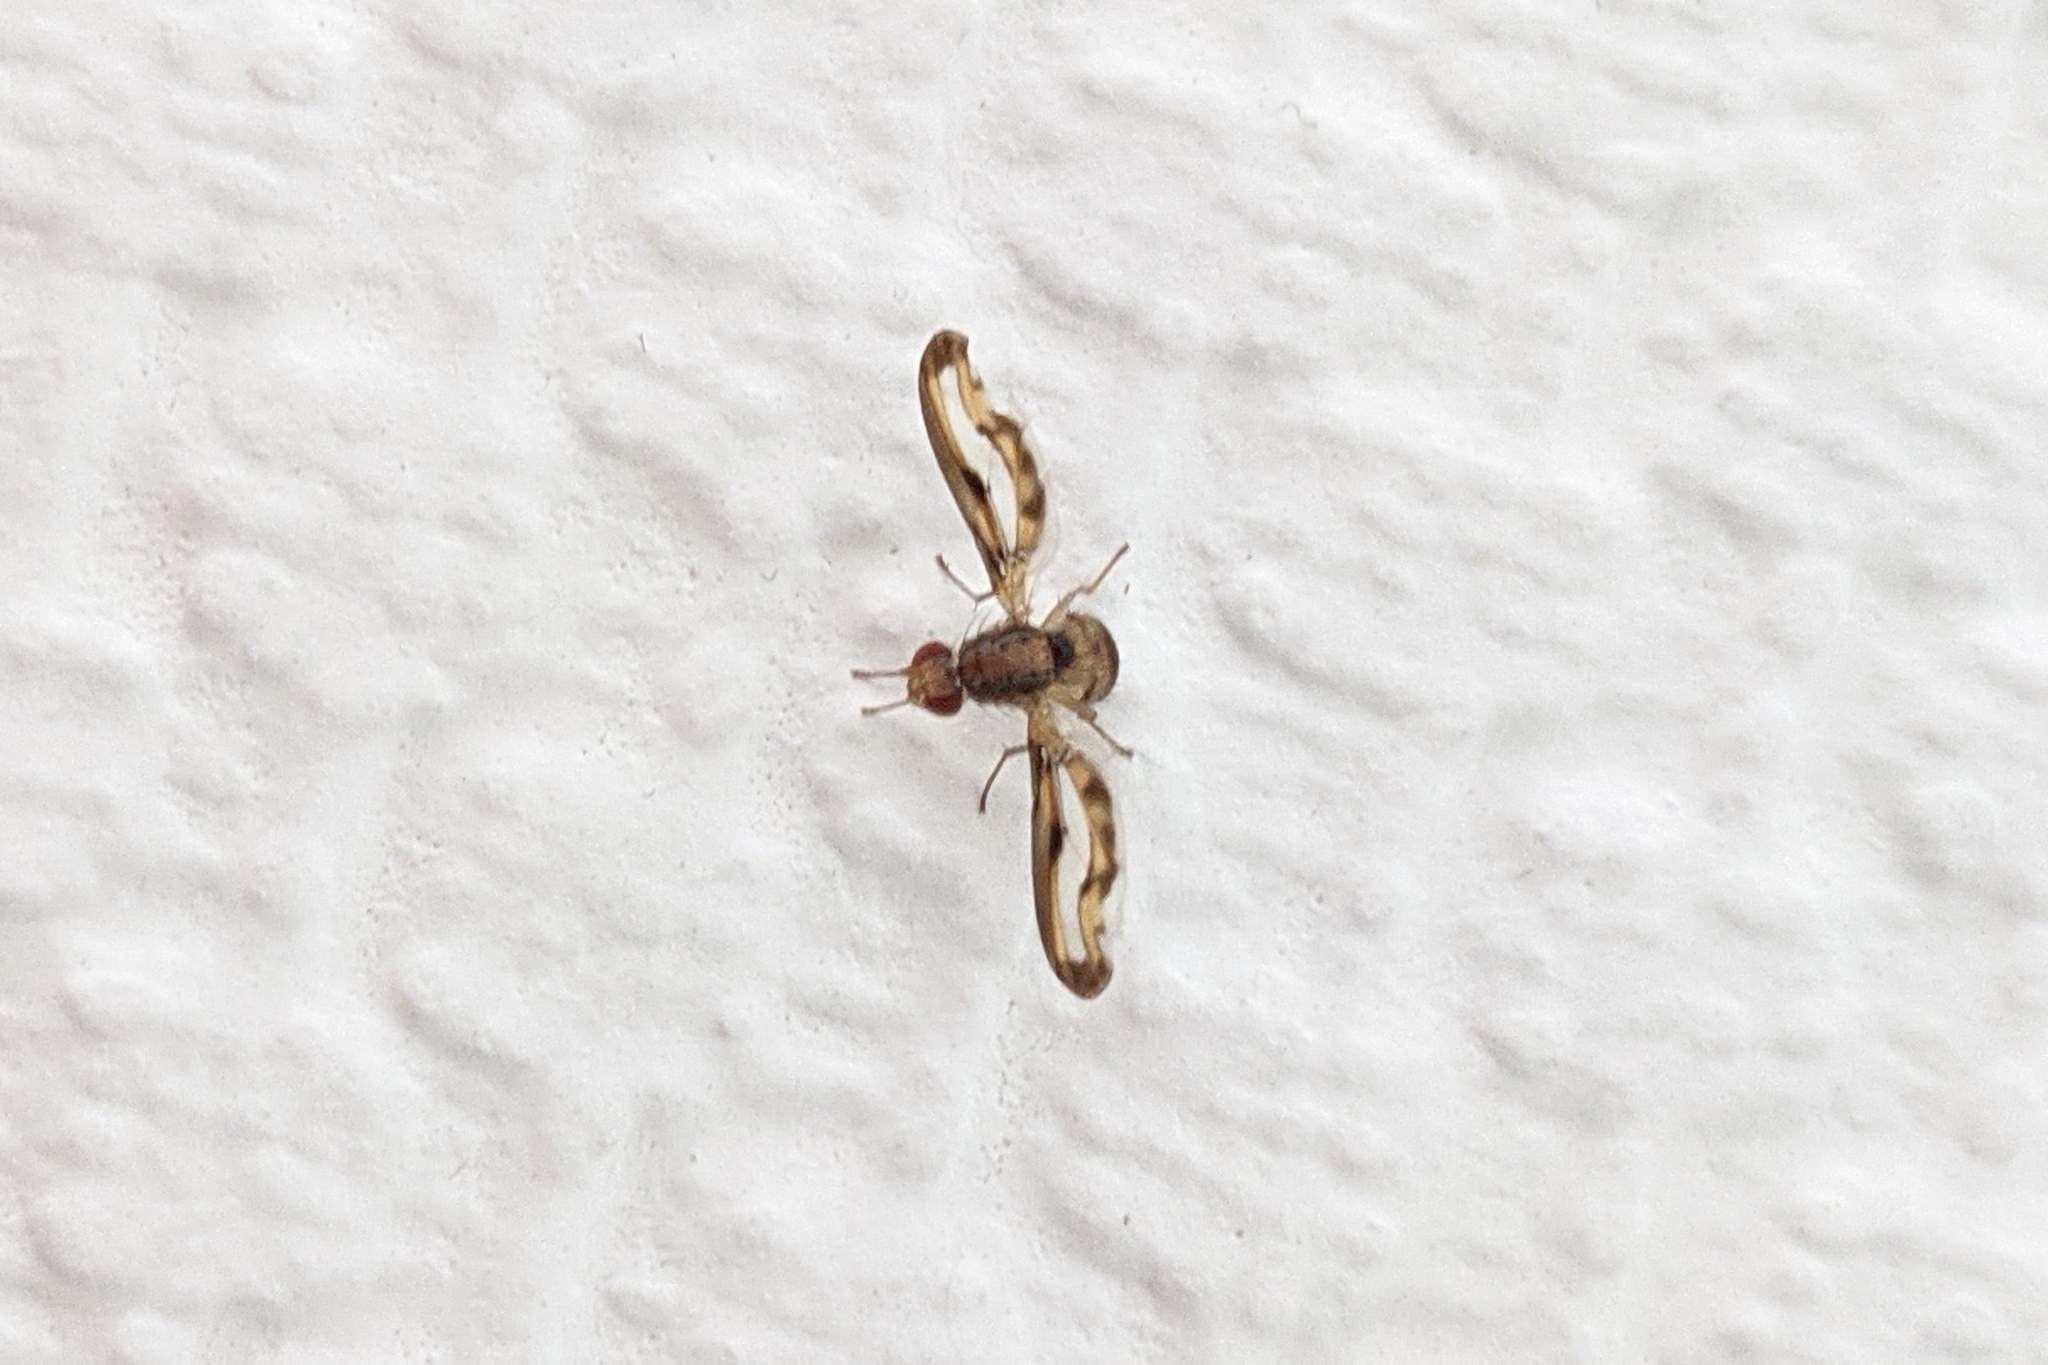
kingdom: Animalia
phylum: Arthropoda
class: Insecta
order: Diptera
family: Pallopteridae
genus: Toxonevra
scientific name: Toxonevra muliebris
